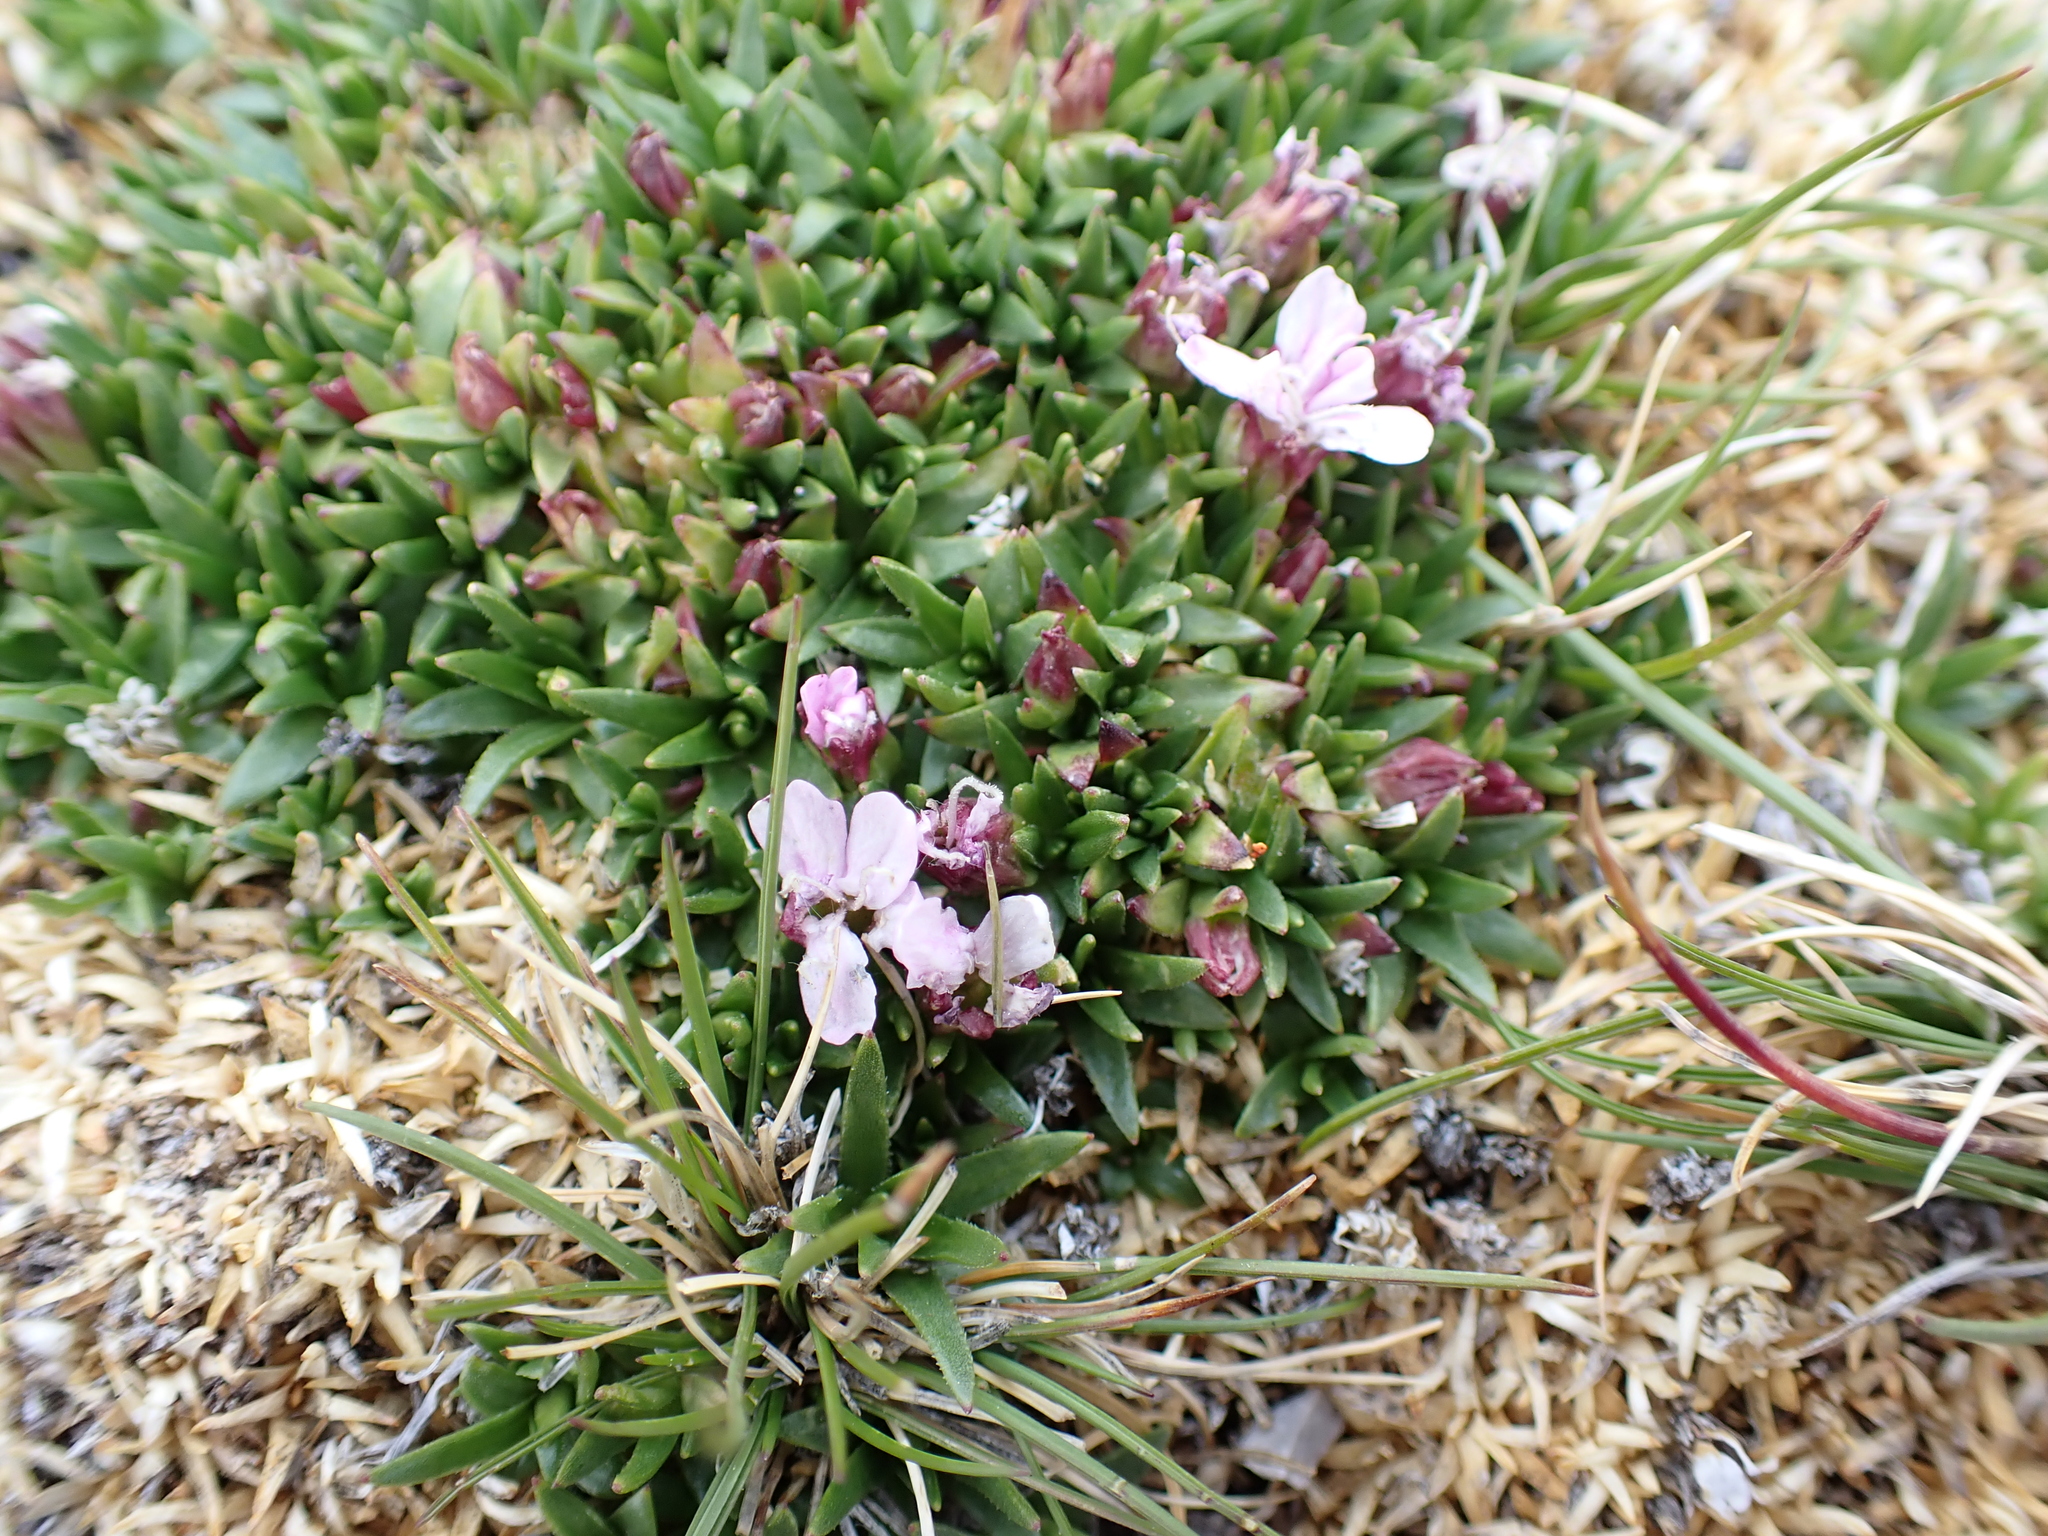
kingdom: Plantae
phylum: Tracheophyta
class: Magnoliopsida
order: Caryophyllales
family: Caryophyllaceae
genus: Silene
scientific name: Silene acaulis
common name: Moss campion
